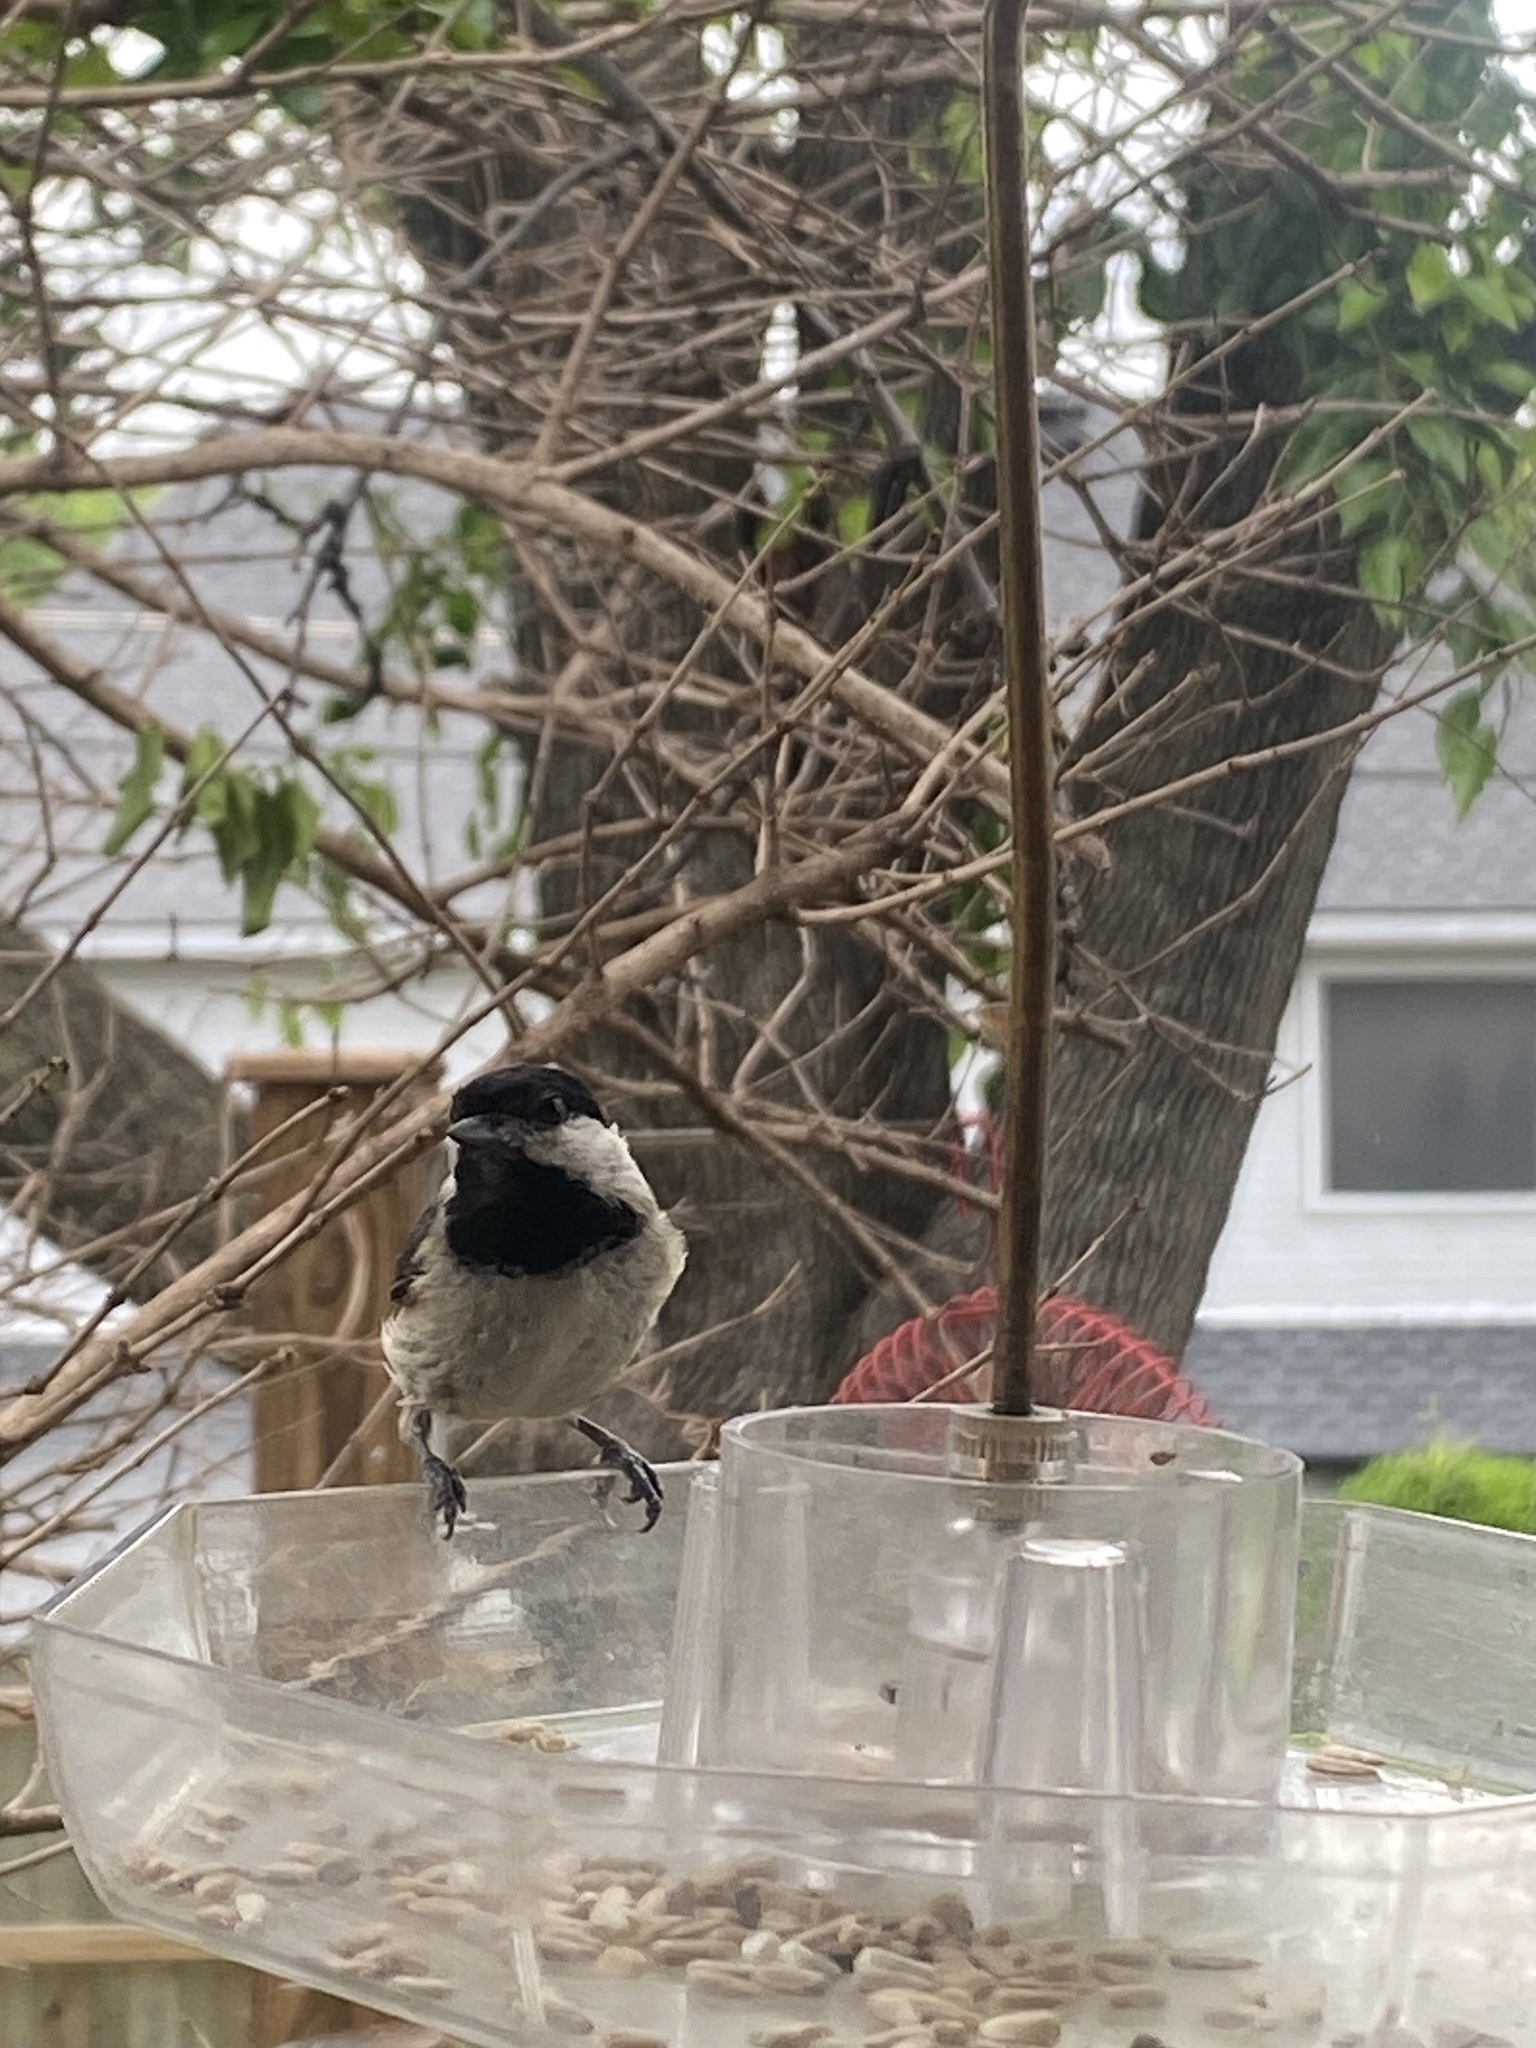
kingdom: Animalia
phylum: Chordata
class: Aves
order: Passeriformes
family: Paridae
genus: Poecile
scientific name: Poecile carolinensis
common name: Carolina chickadee
